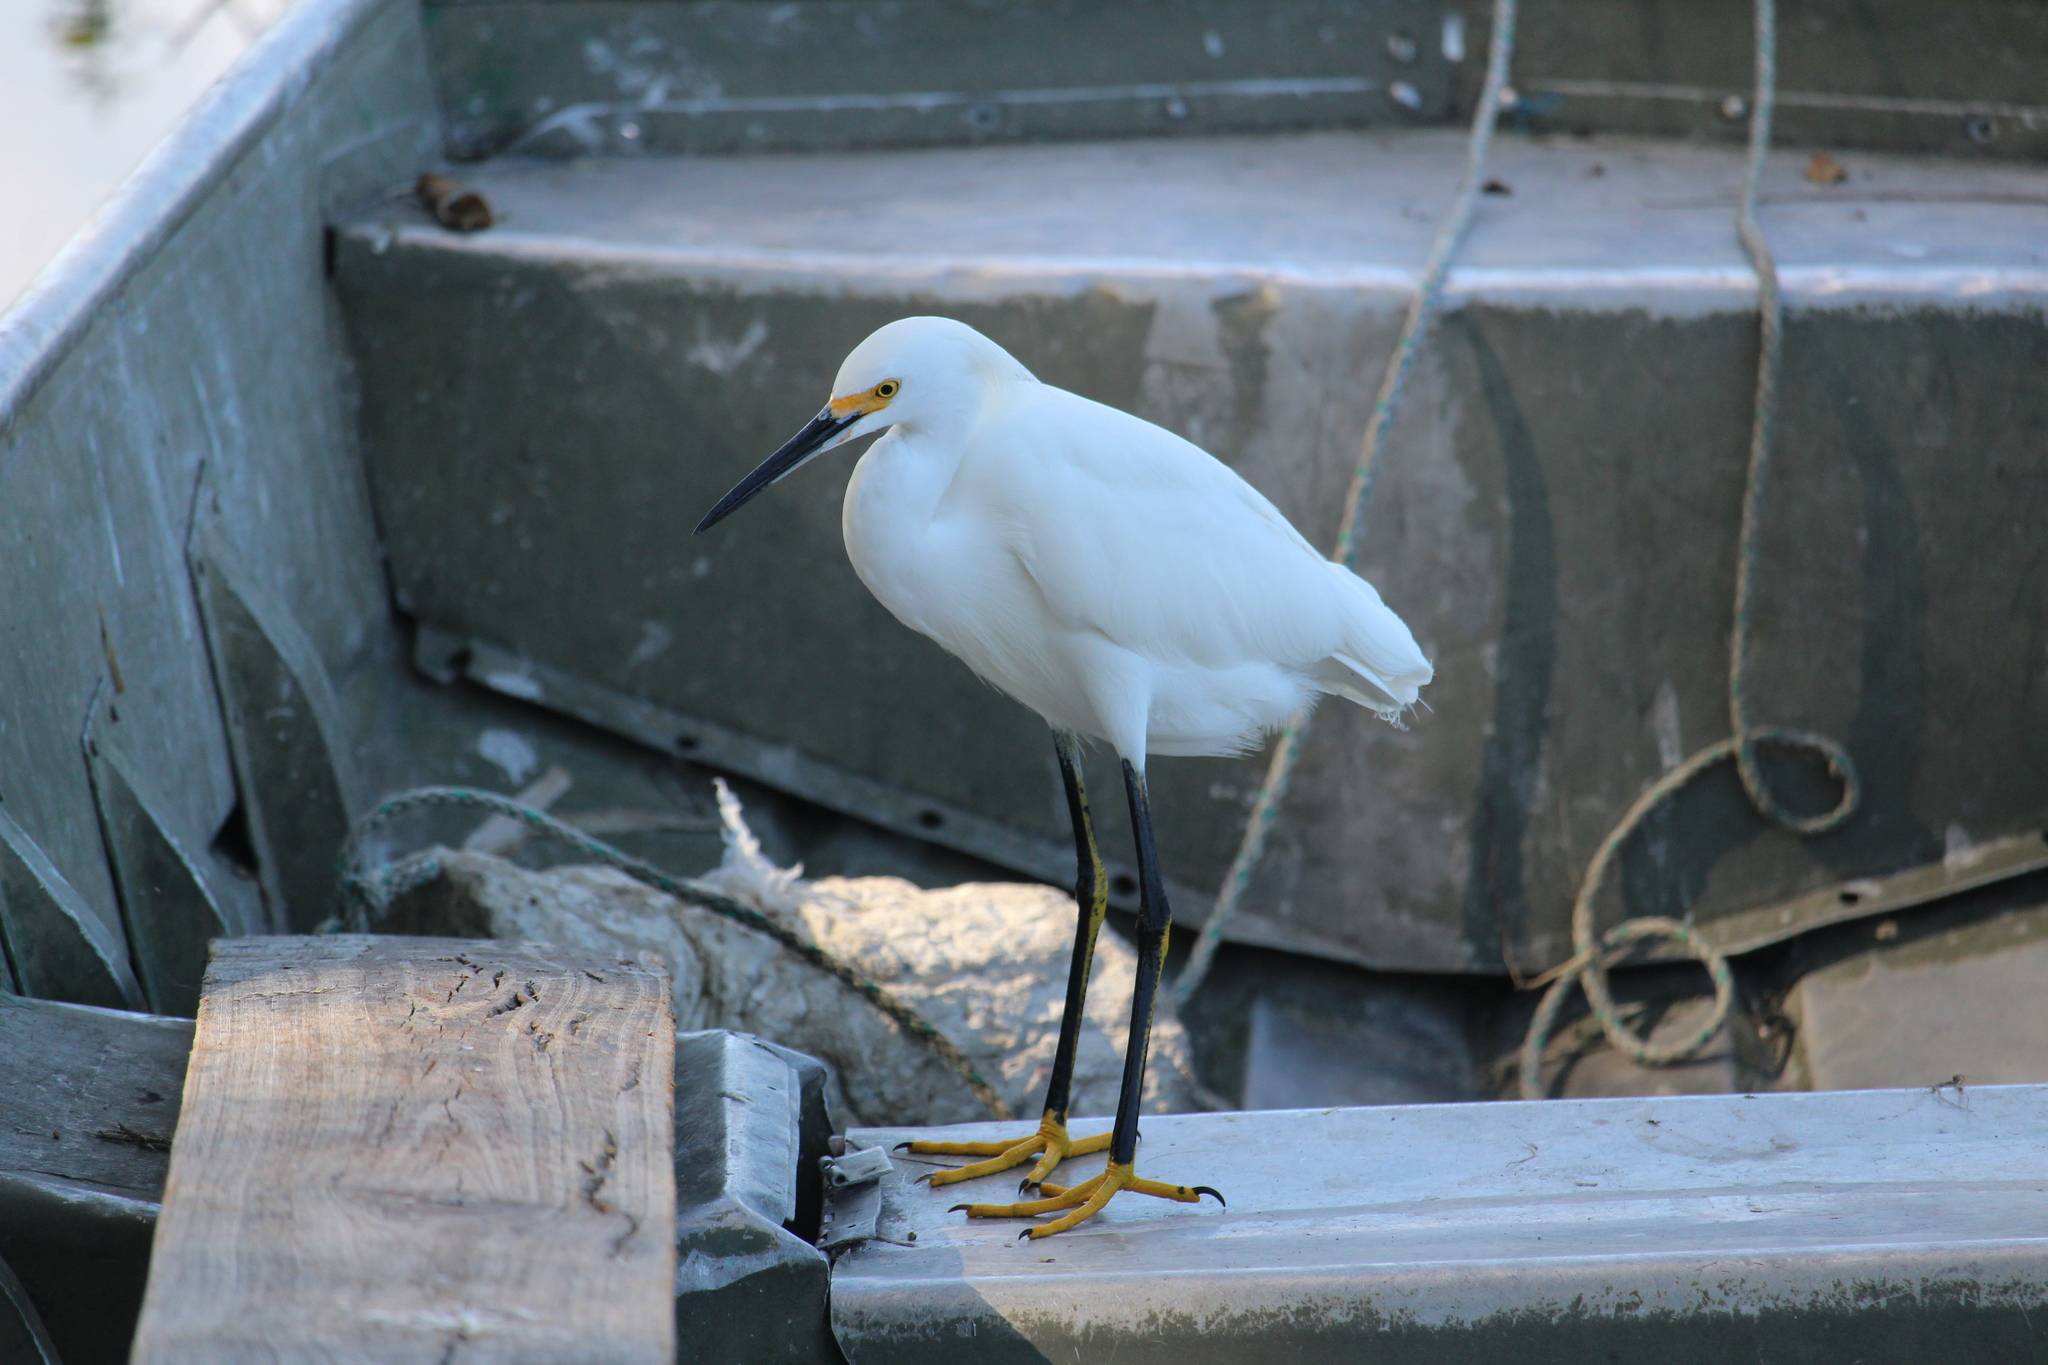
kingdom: Animalia
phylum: Chordata
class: Aves
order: Pelecaniformes
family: Ardeidae
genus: Egretta
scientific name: Egretta thula
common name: Snowy egret
